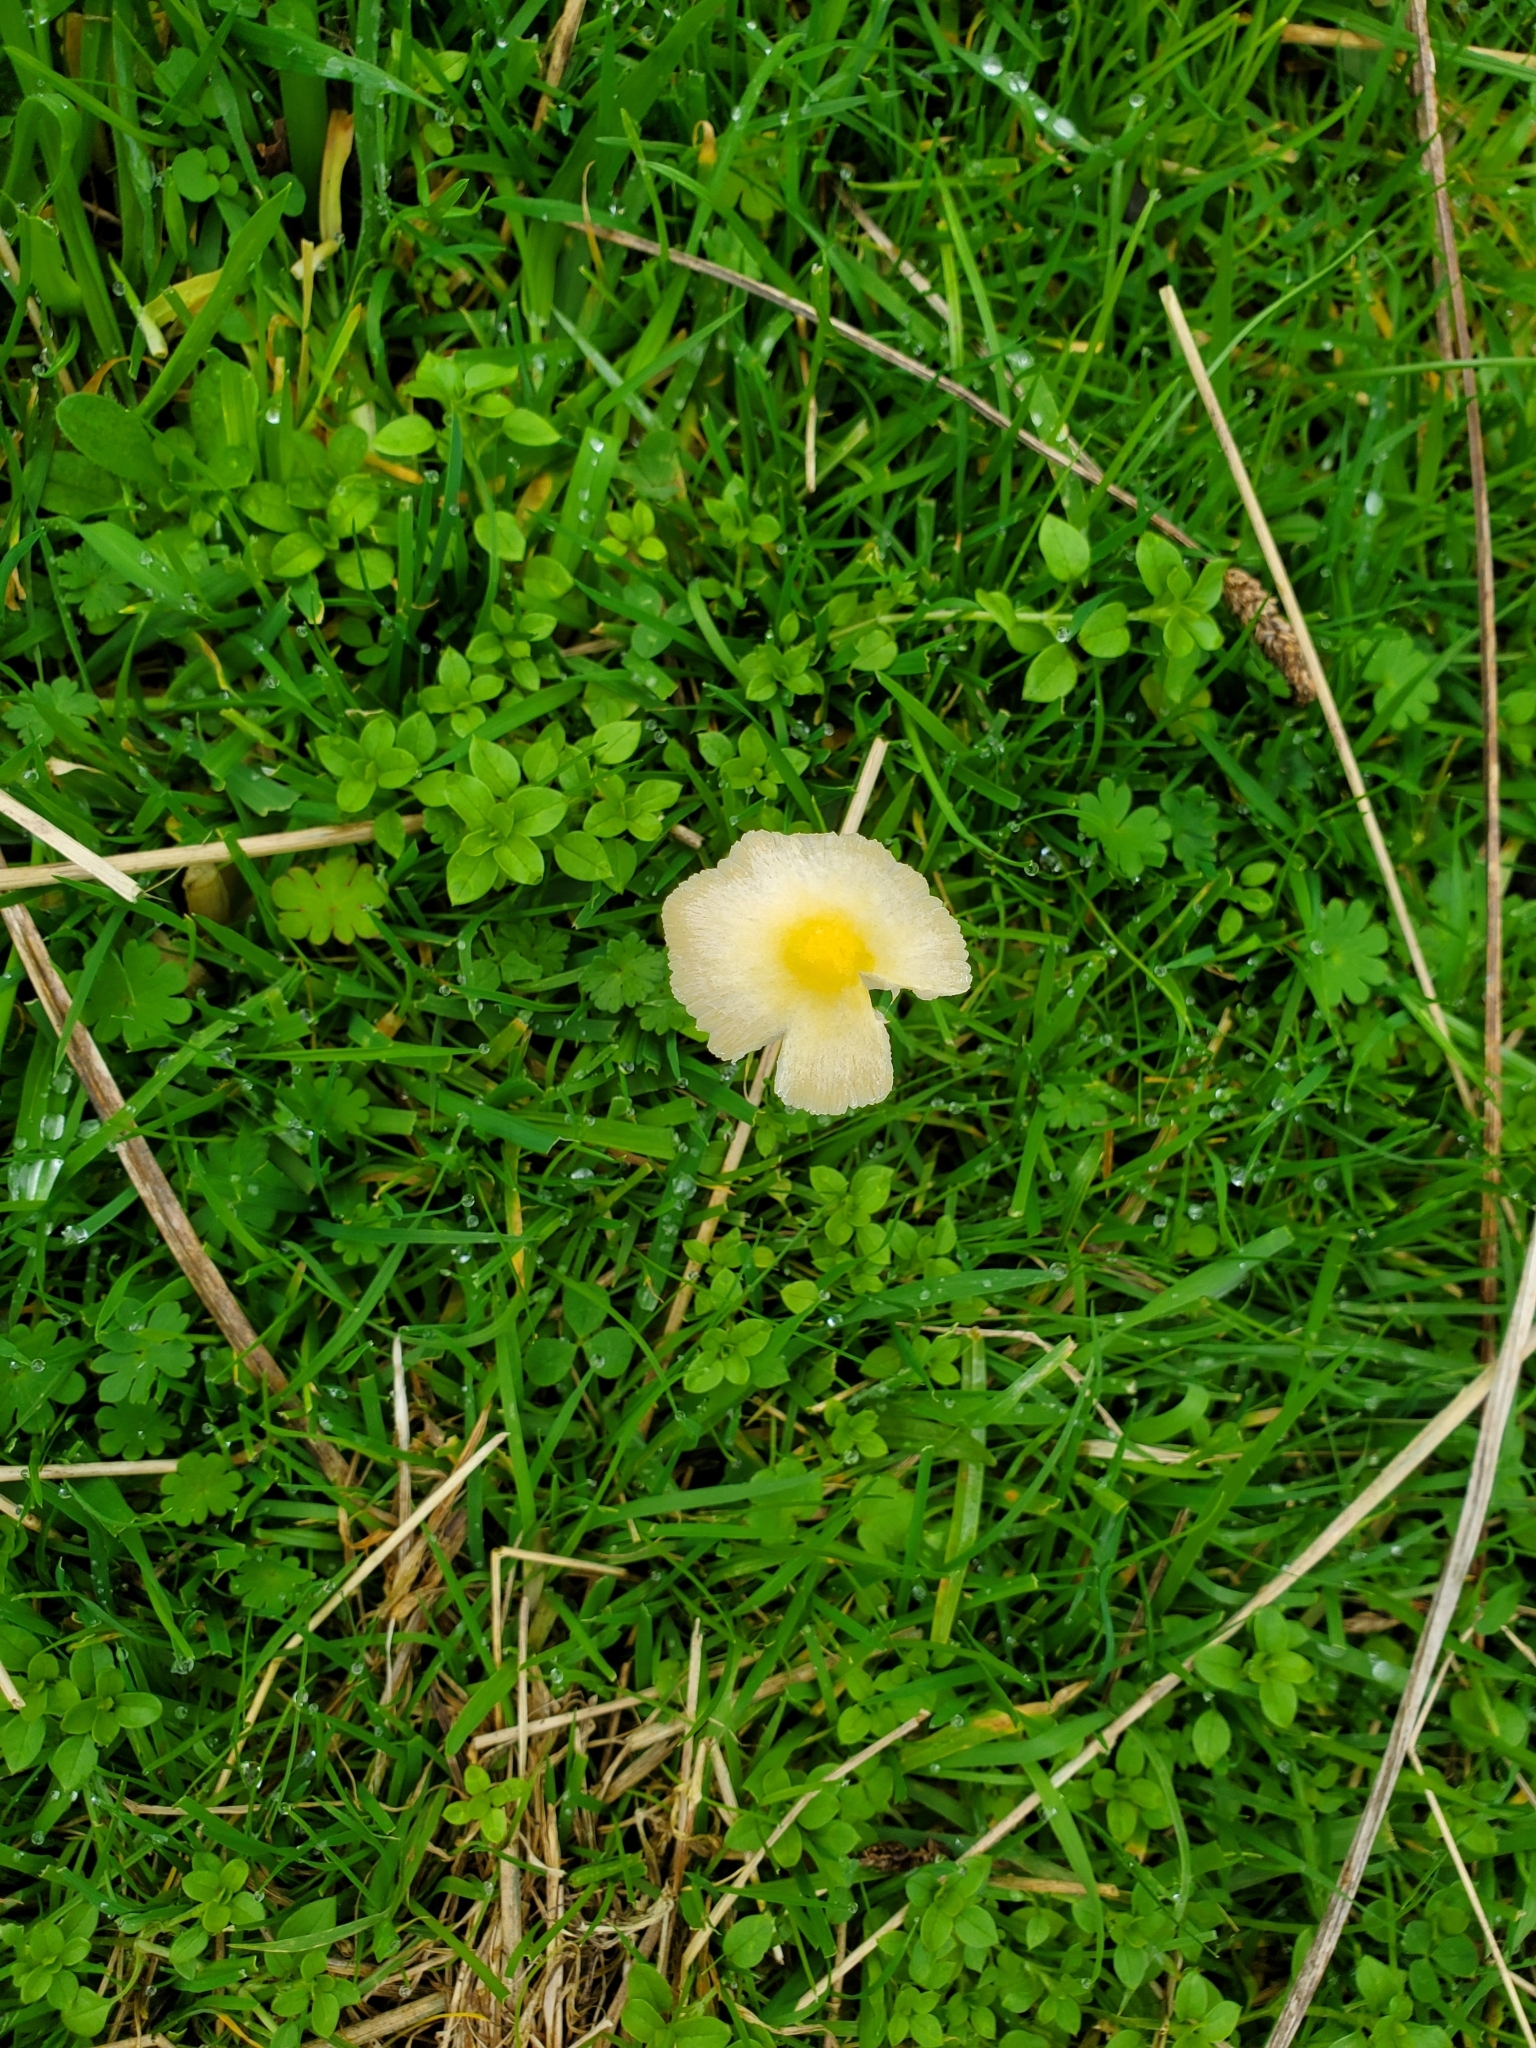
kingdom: Fungi
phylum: Basidiomycota
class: Agaricomycetes
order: Agaricales
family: Bolbitiaceae
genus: Bolbitius
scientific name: Bolbitius titubans
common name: Yellow fieldcap
